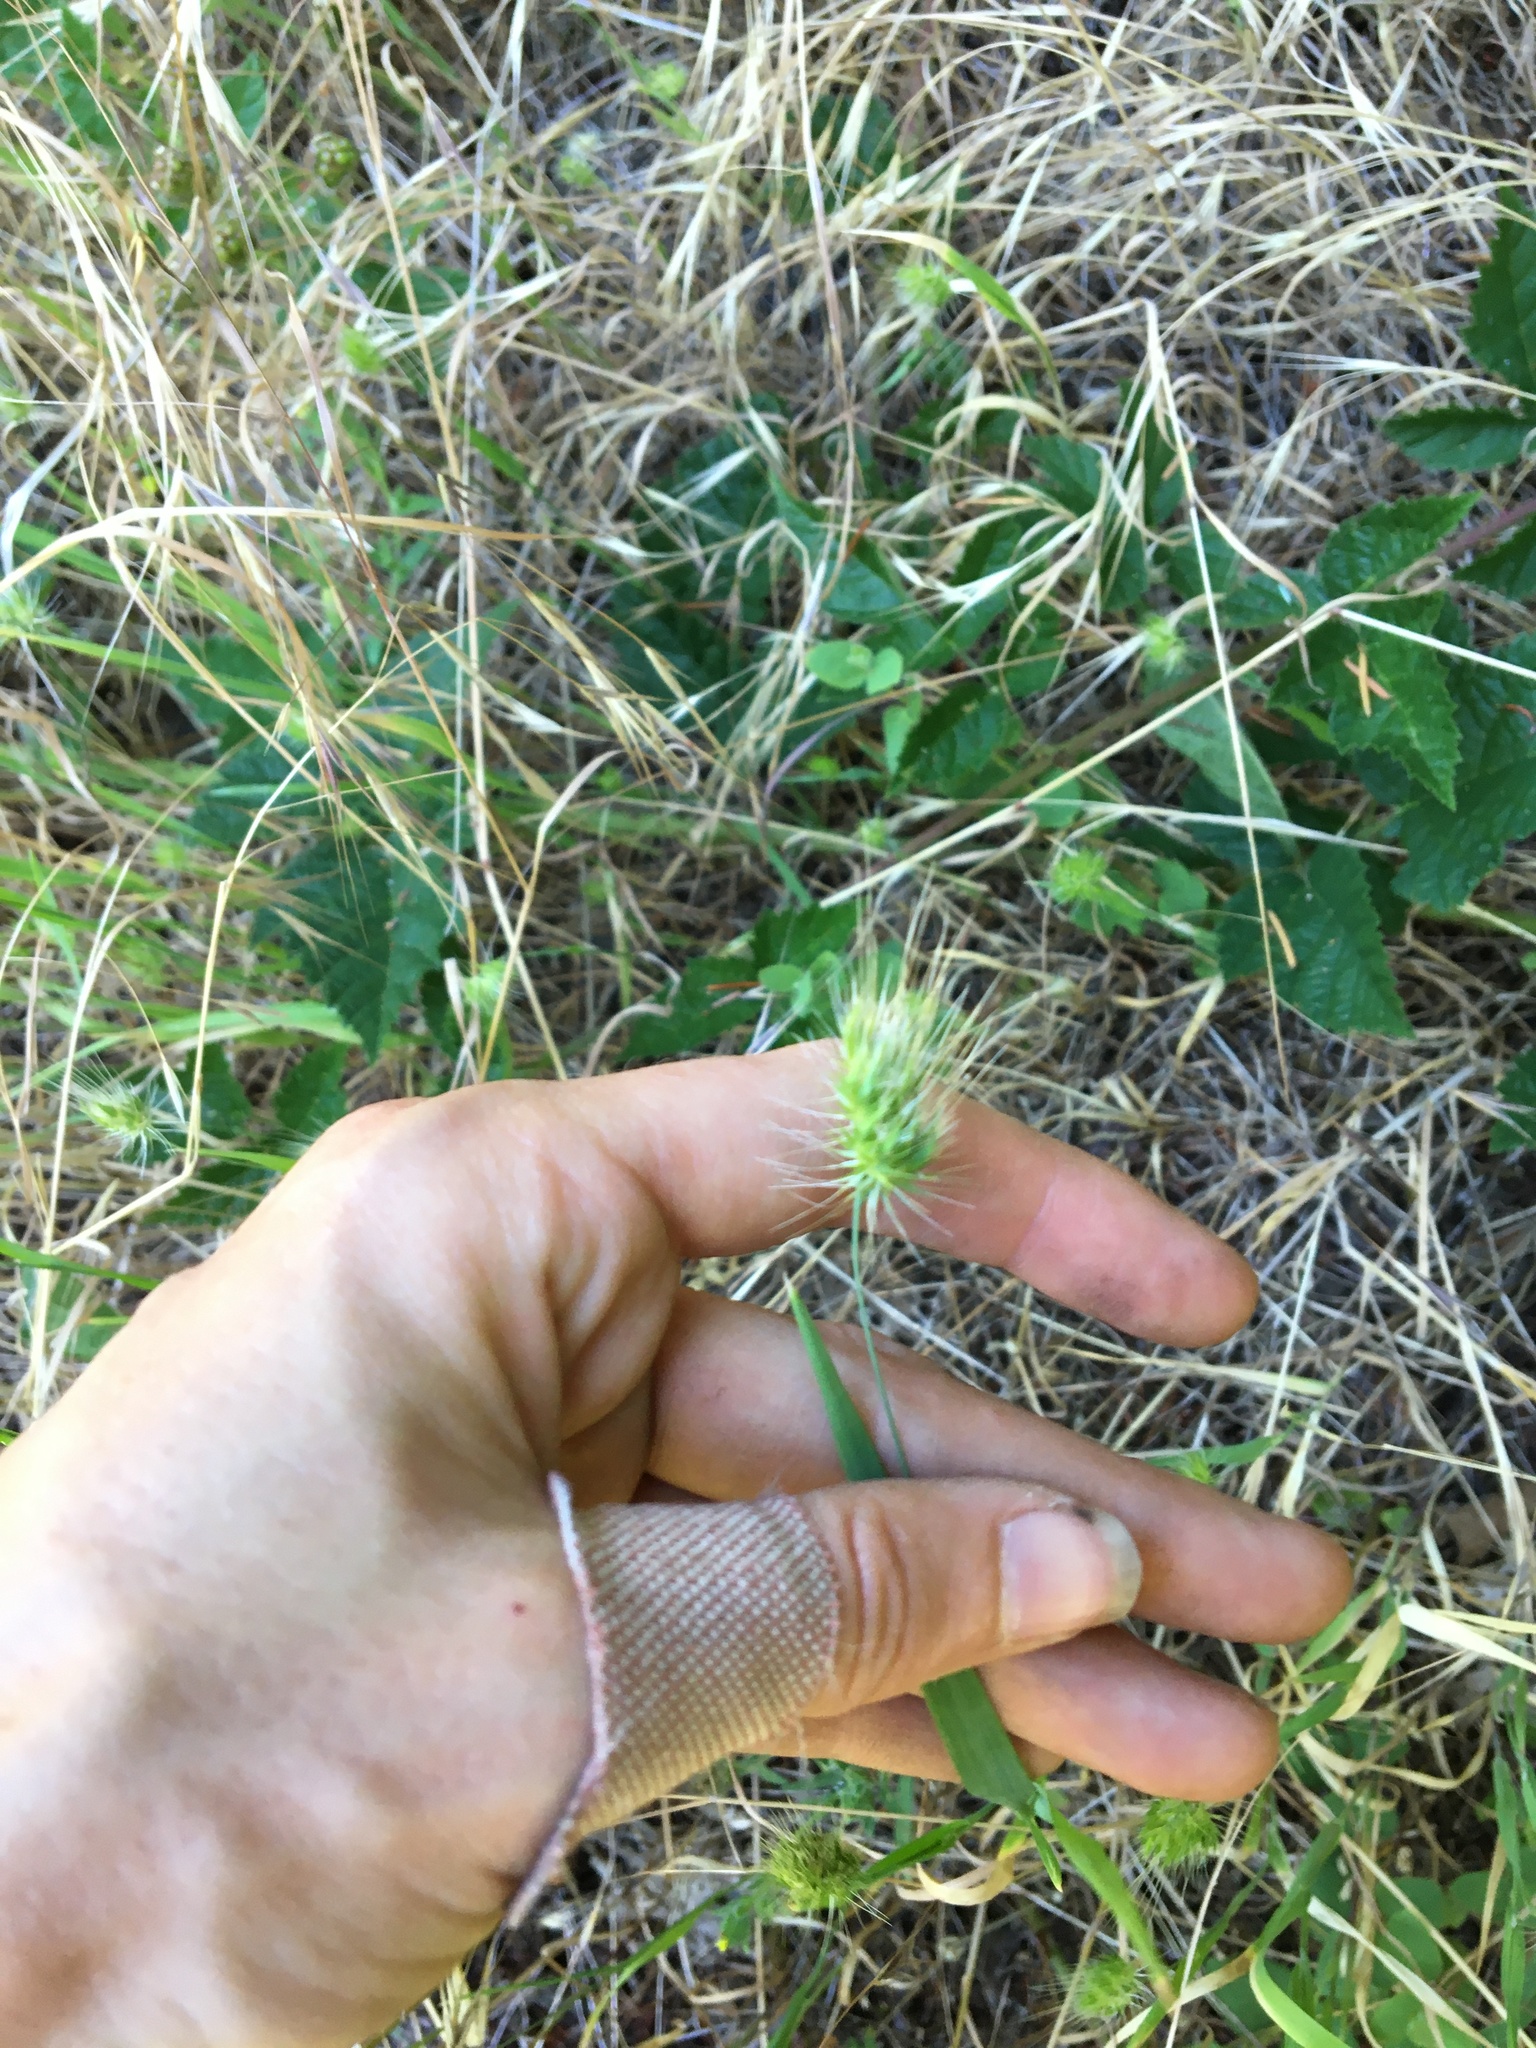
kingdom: Plantae
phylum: Tracheophyta
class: Liliopsida
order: Poales
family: Poaceae
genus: Cynosurus
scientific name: Cynosurus echinatus
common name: Rough dog's-tail
